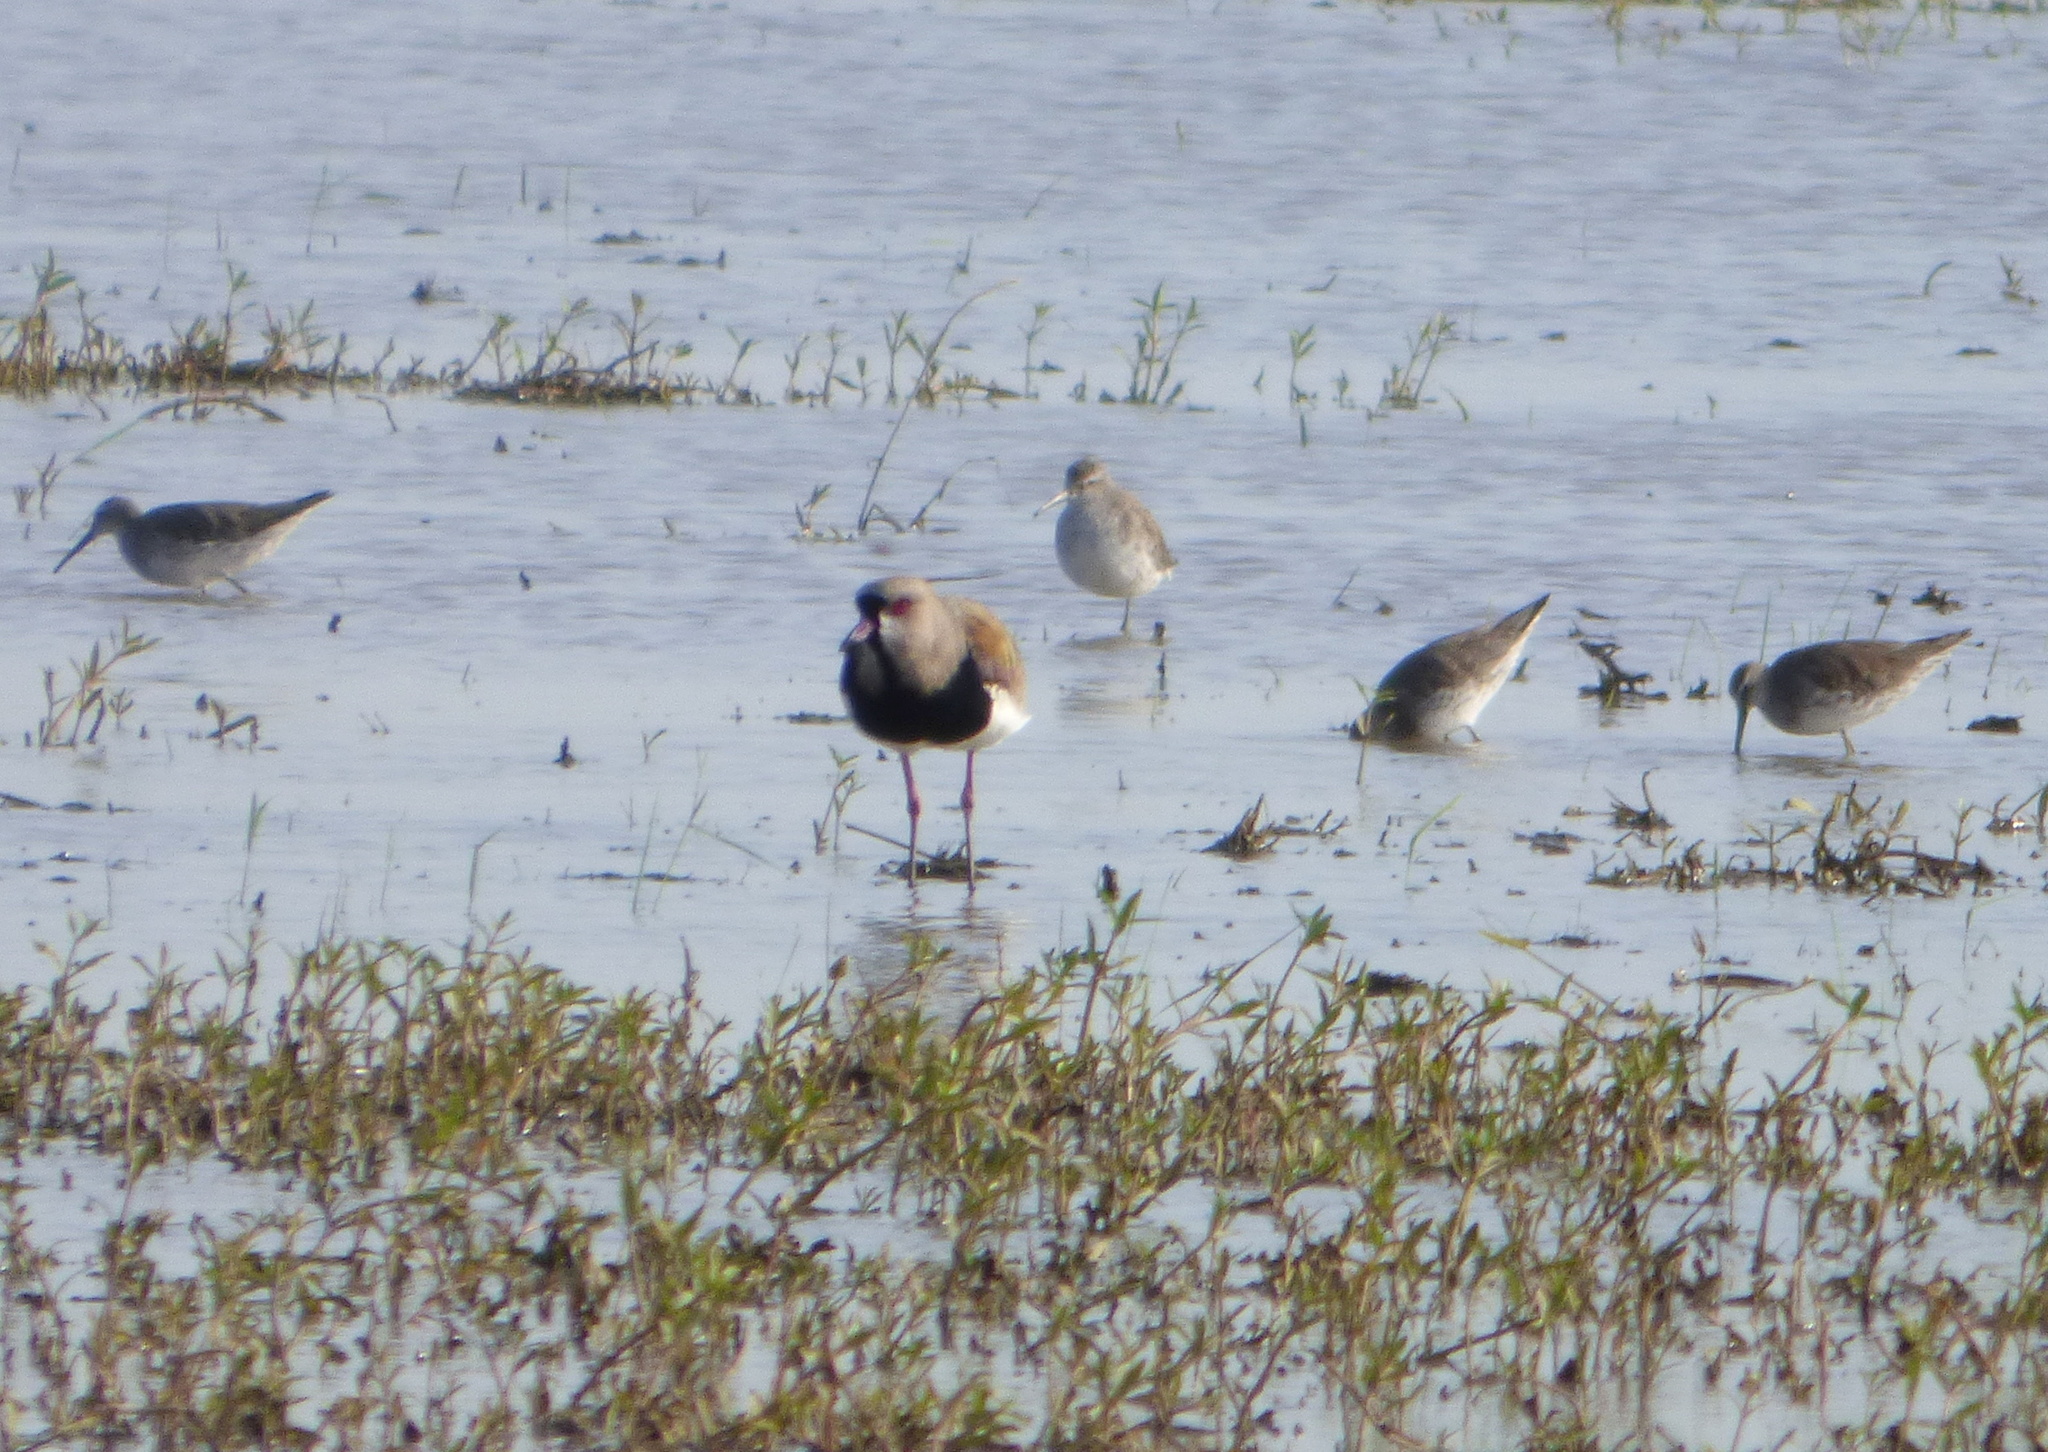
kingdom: Animalia
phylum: Chordata
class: Aves
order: Charadriiformes
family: Scolopacidae
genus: Calidris
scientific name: Calidris himantopus
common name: Stilt sandpiper
